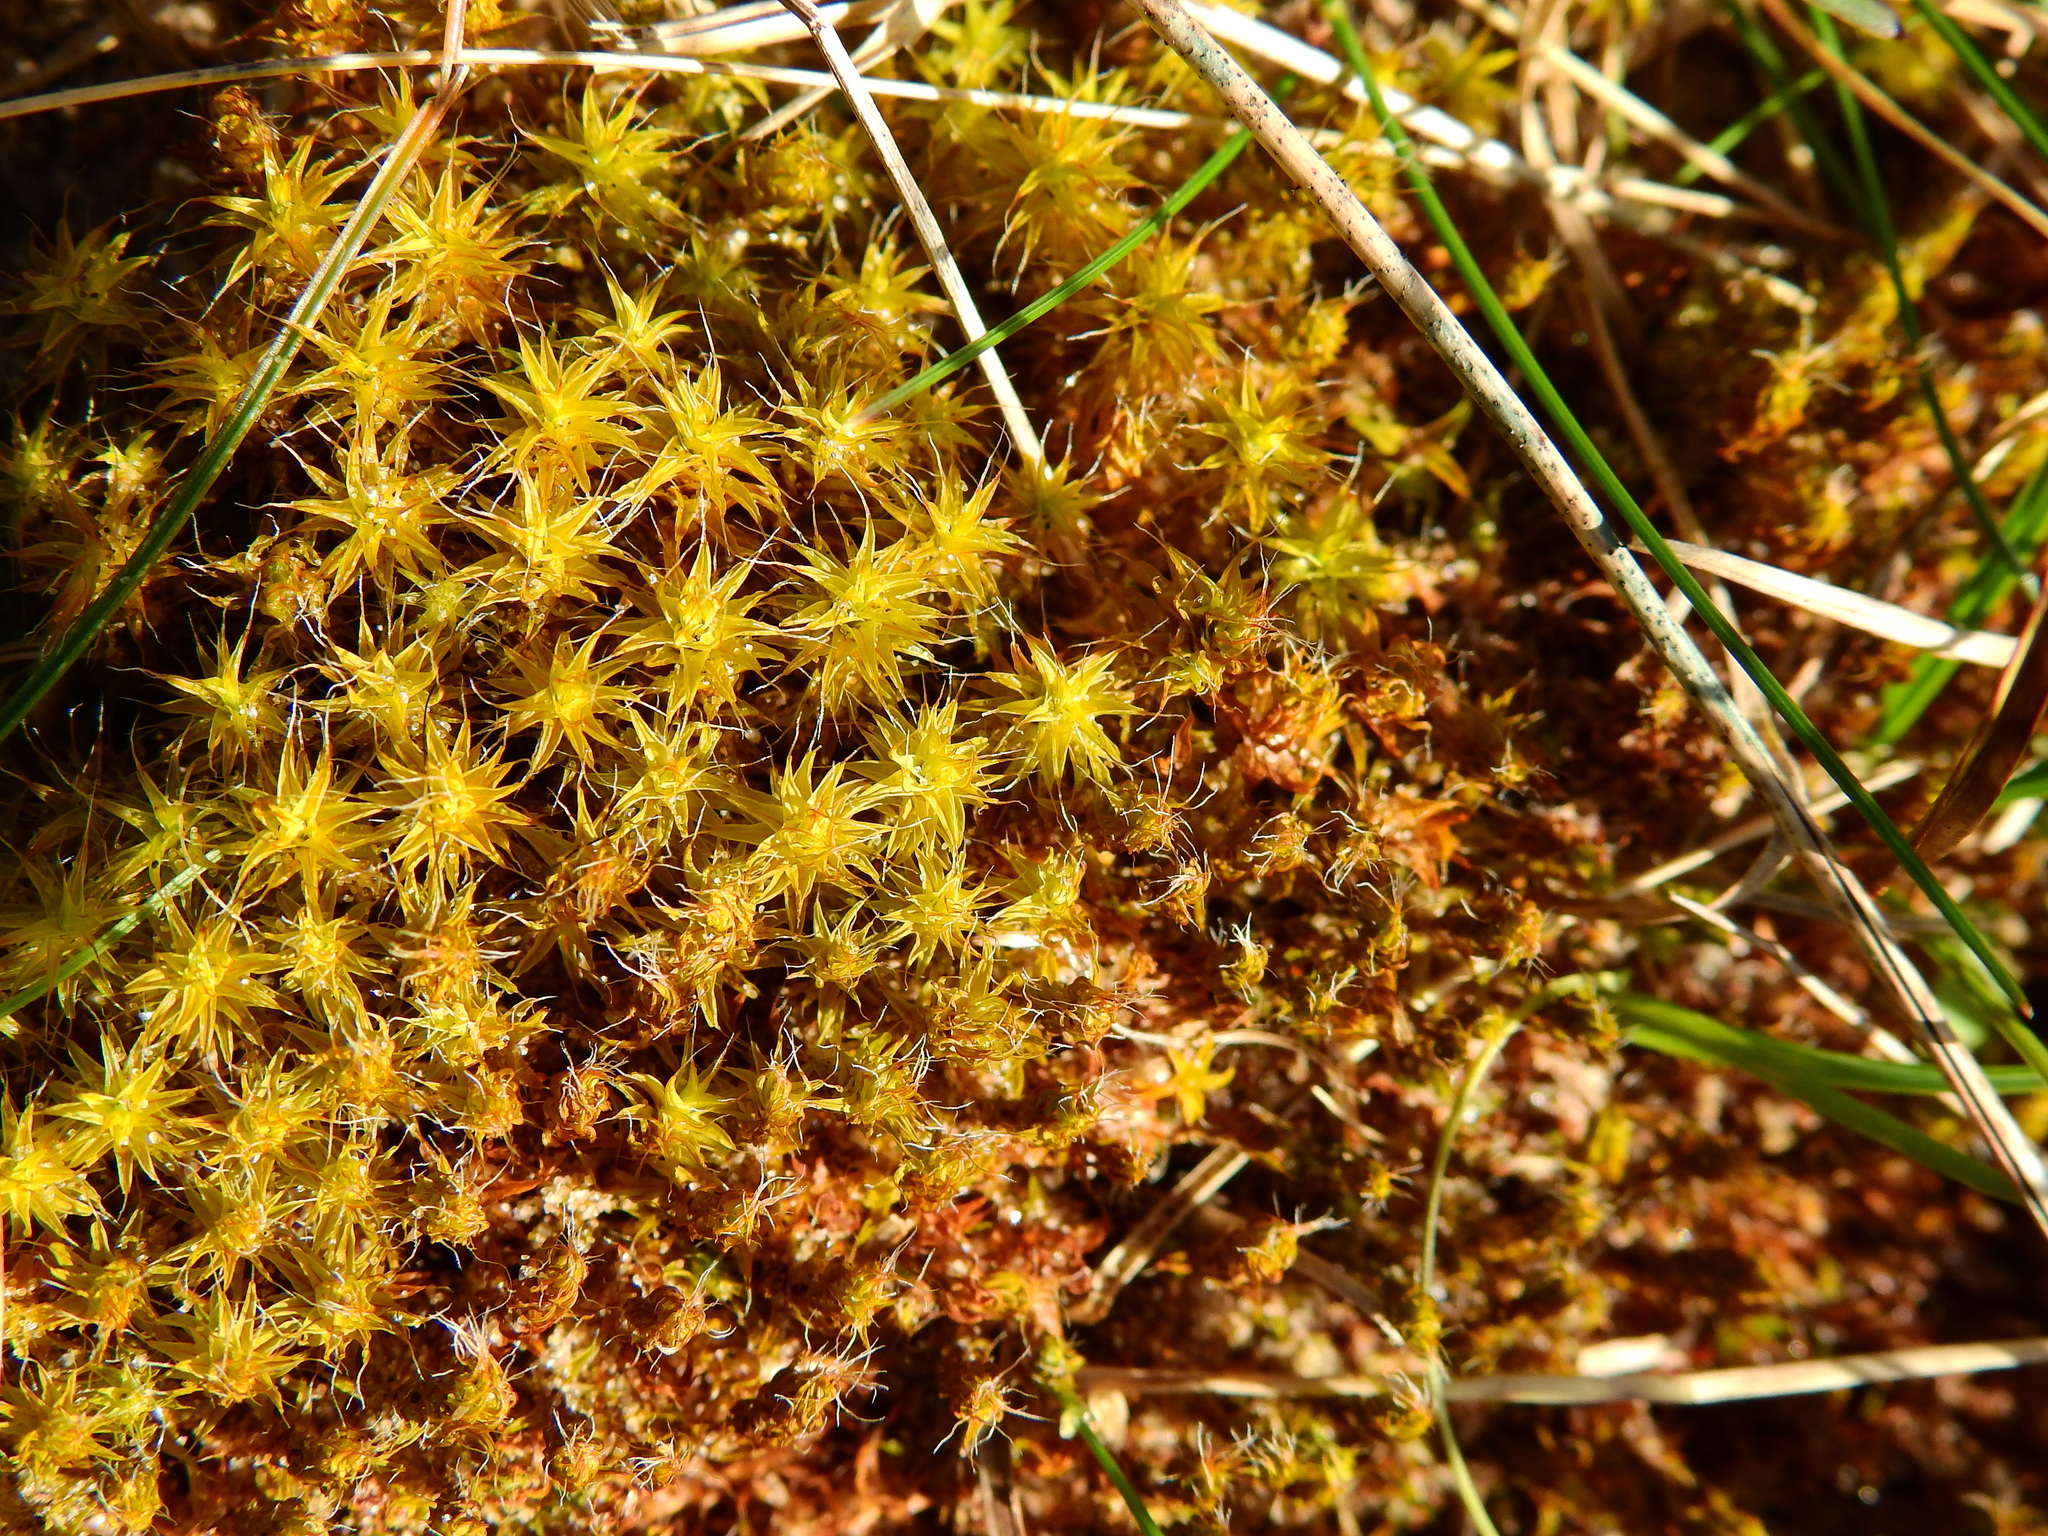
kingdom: Plantae
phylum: Bryophyta
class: Bryopsida
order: Pottiales
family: Pottiaceae
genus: Syntrichia
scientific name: Syntrichia ruralis
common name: Sidewalk screw moss
